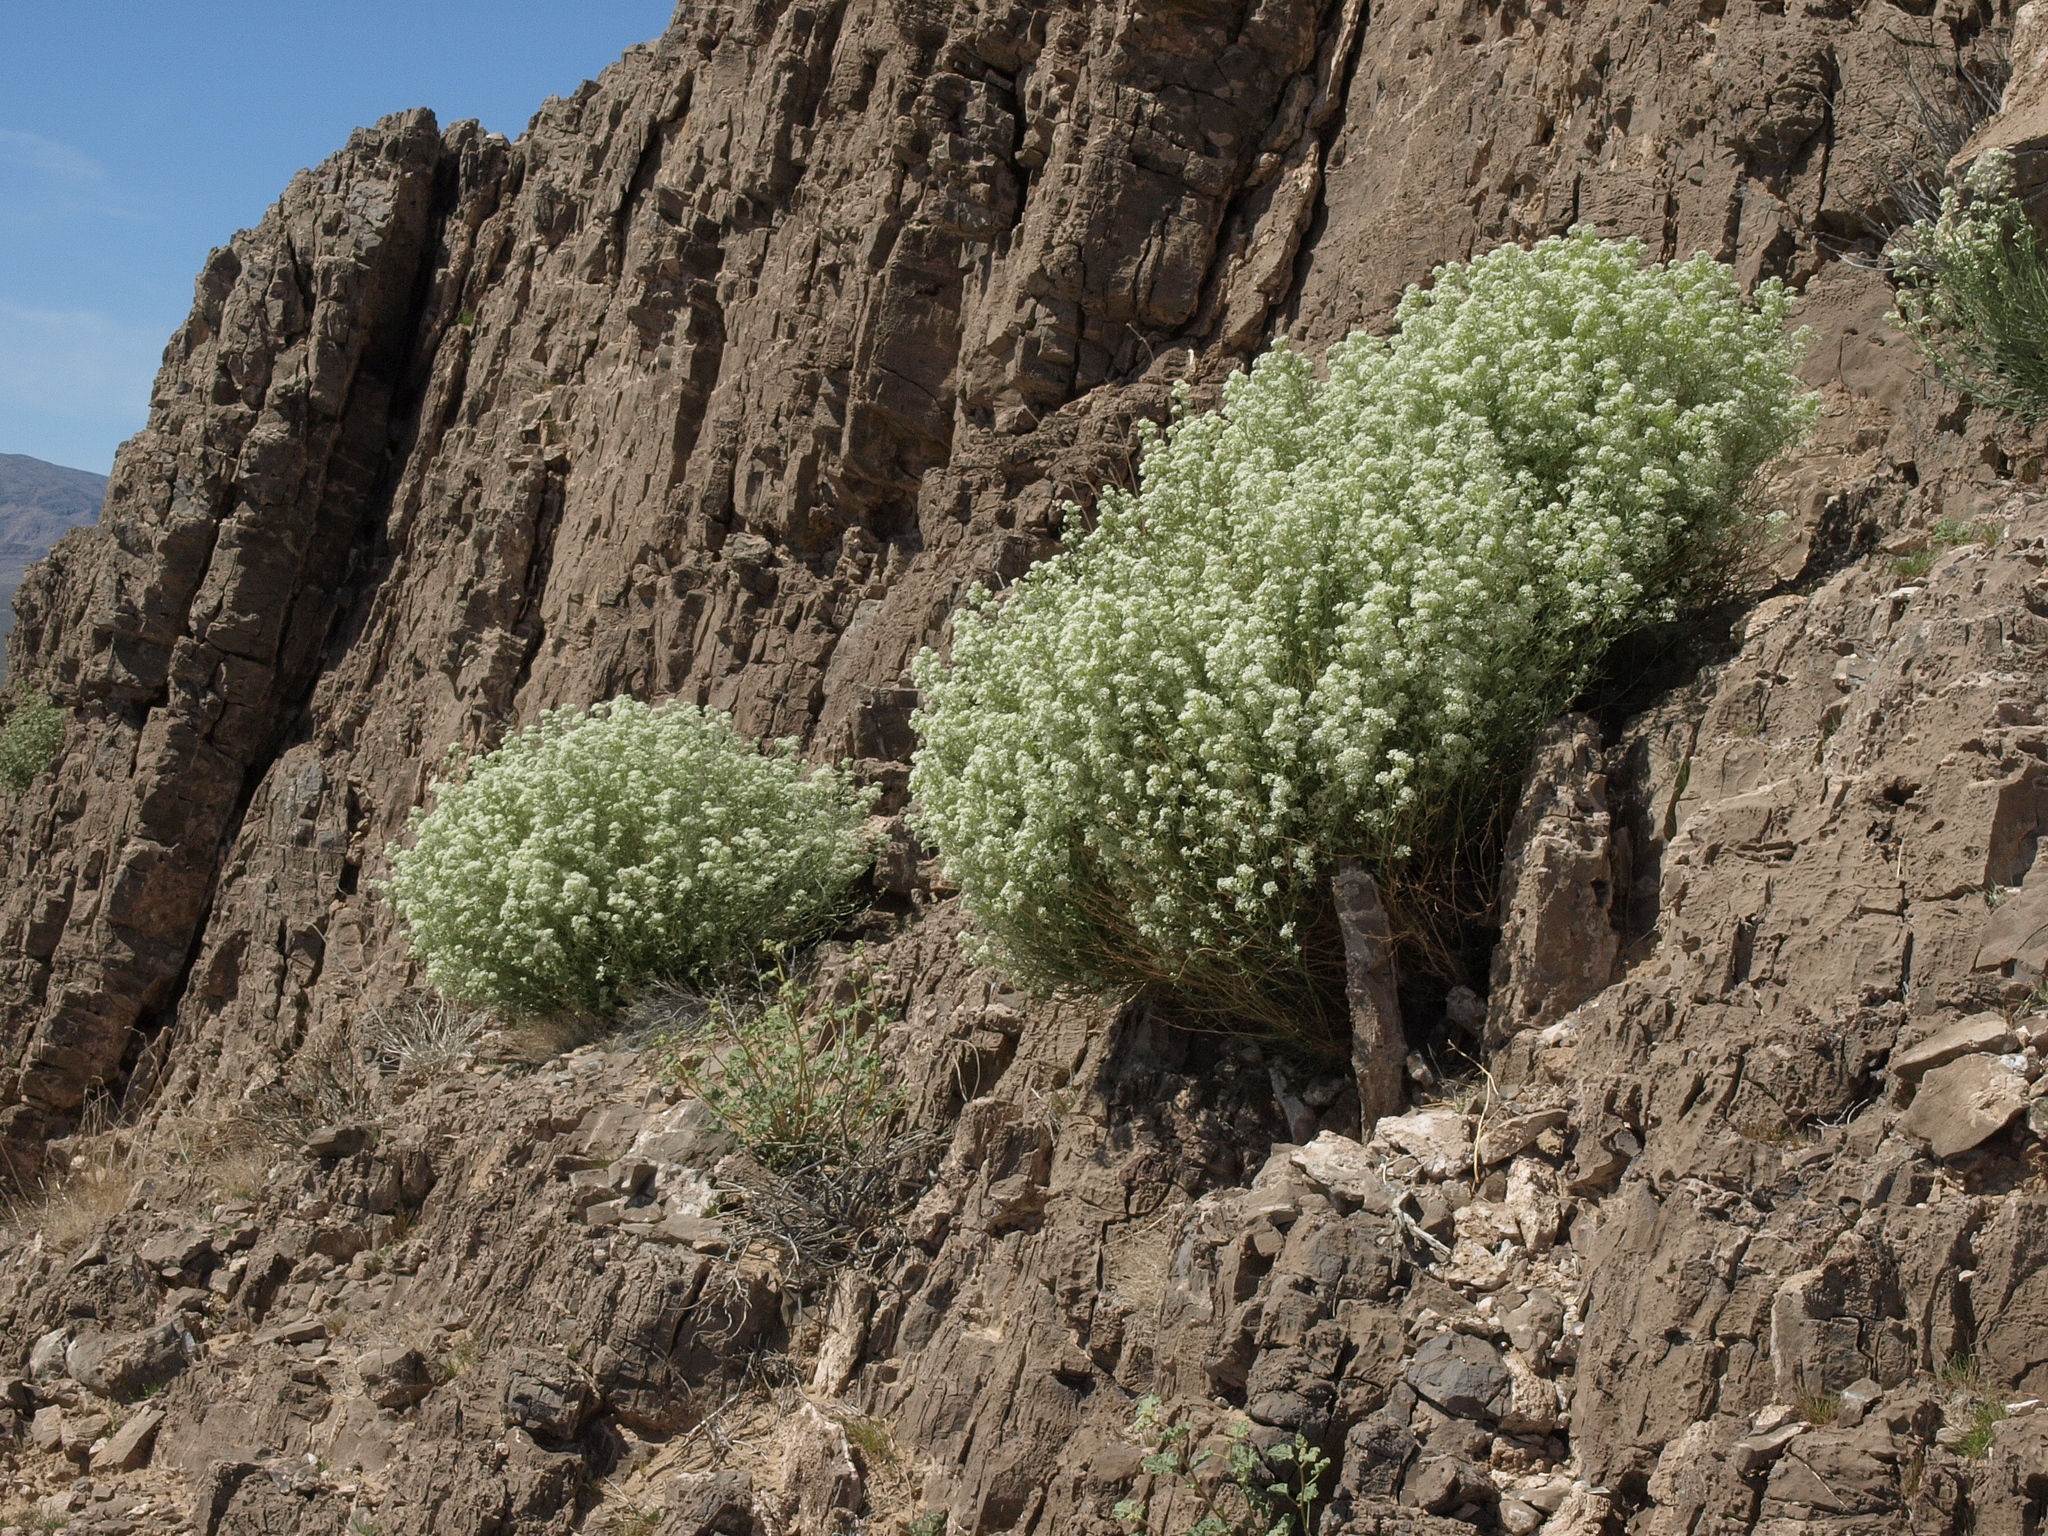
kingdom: Plantae
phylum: Tracheophyta
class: Magnoliopsida
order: Brassicales
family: Brassicaceae
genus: Lepidium
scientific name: Lepidium fremontii
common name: Fremont's pepperwort
